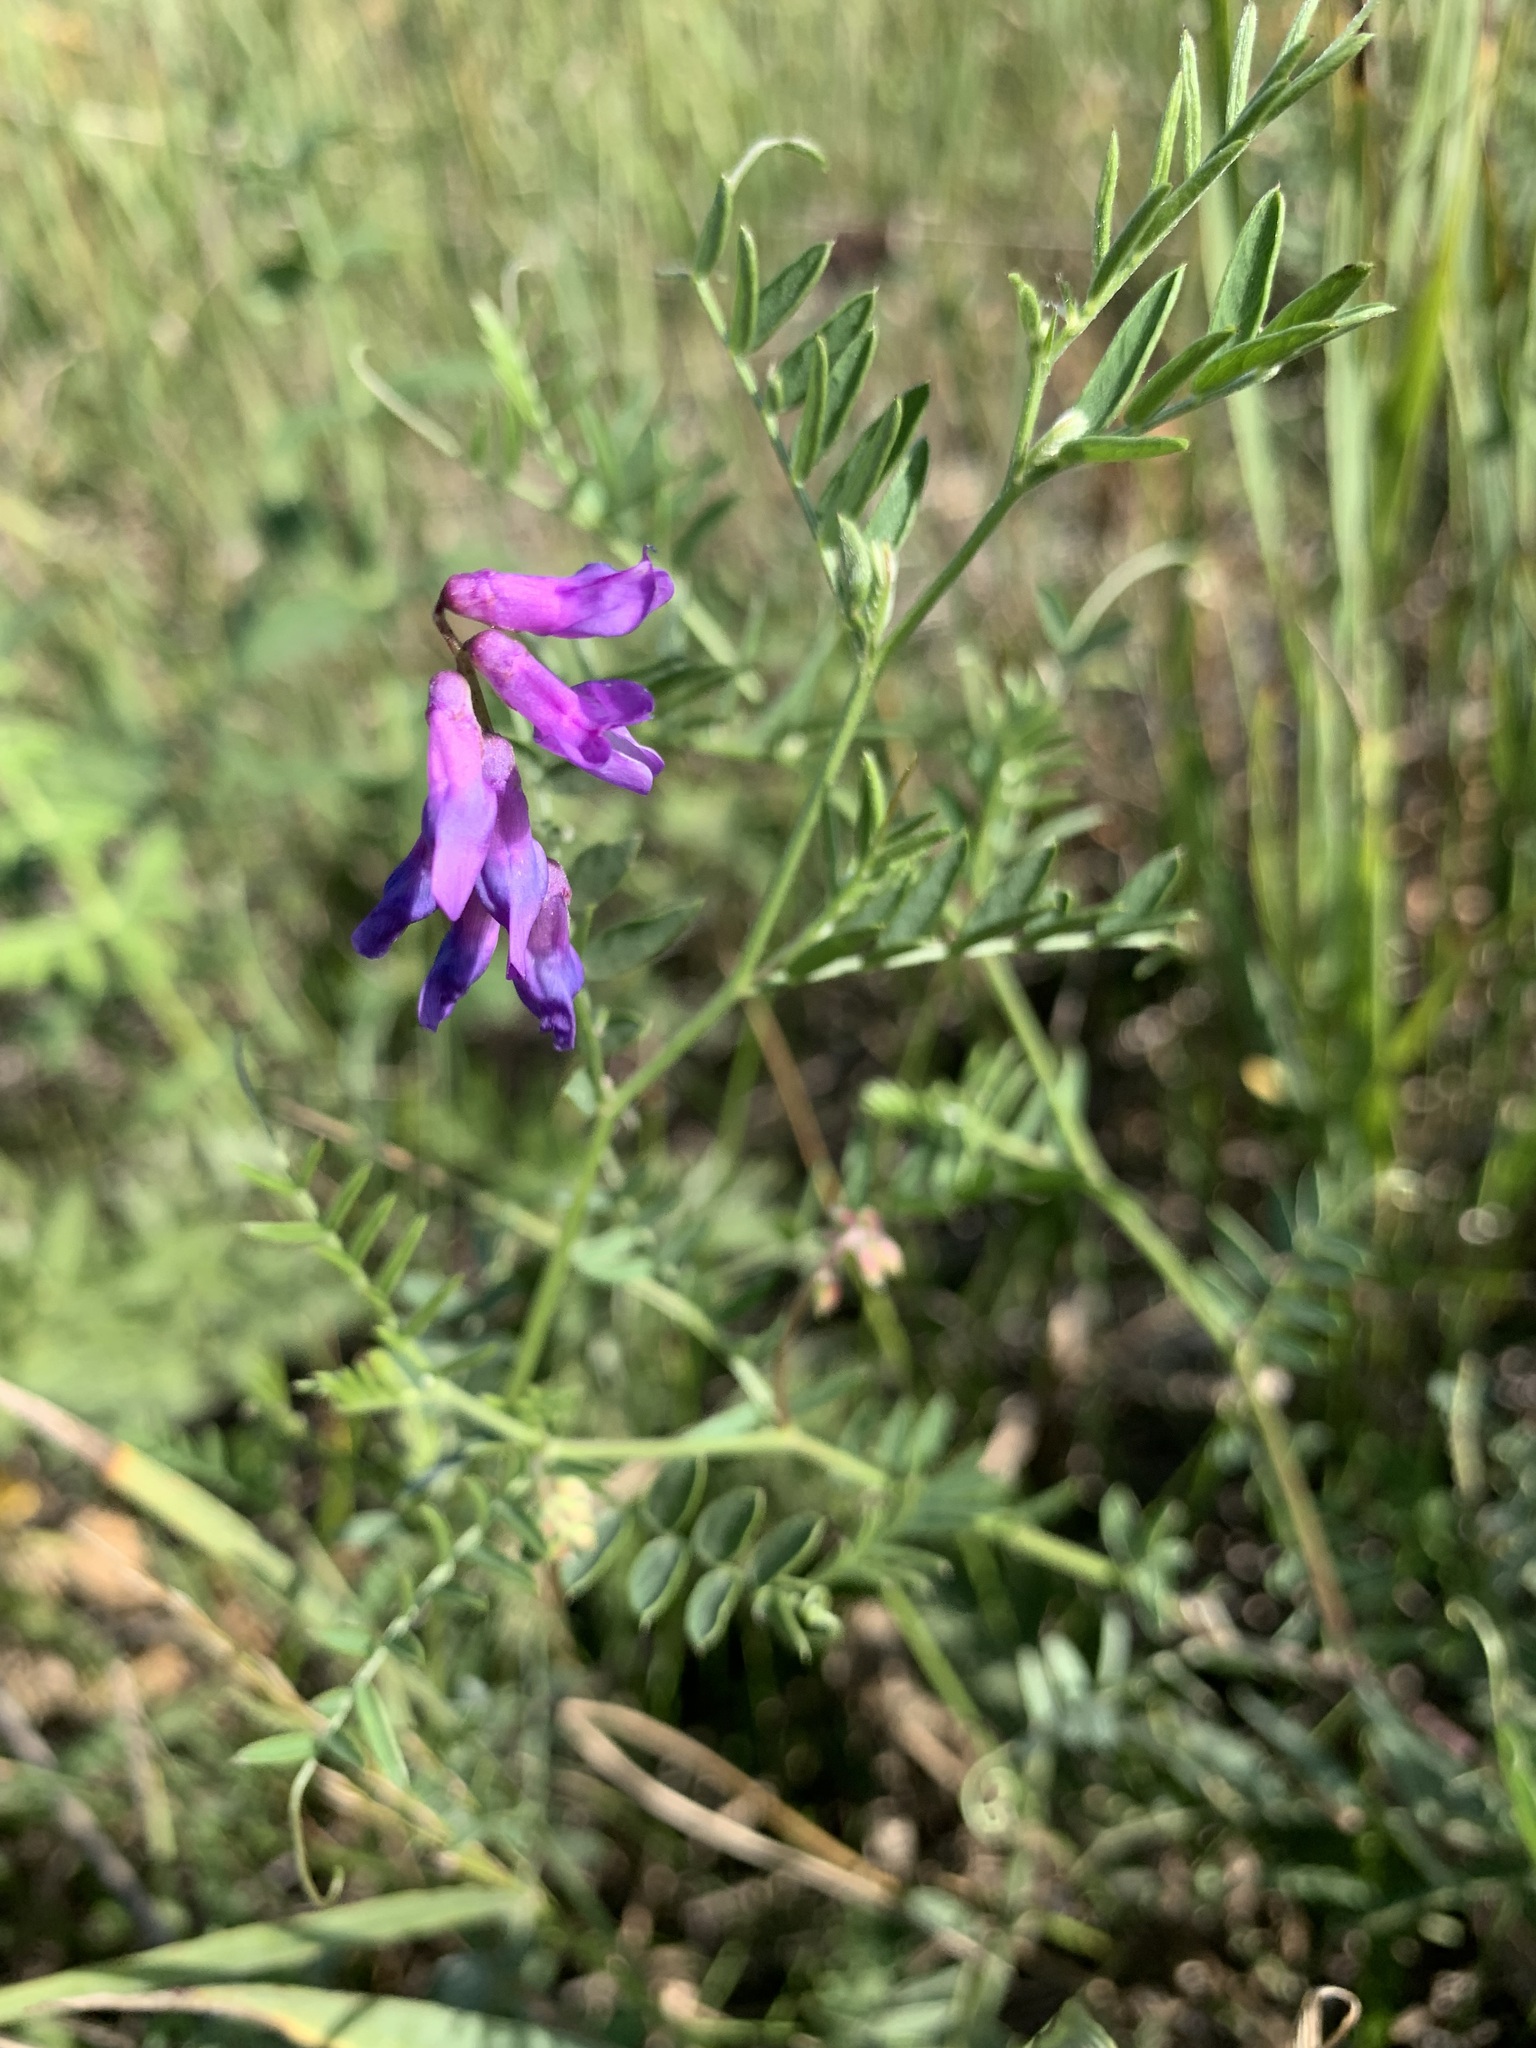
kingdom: Plantae
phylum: Tracheophyta
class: Magnoliopsida
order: Fabales
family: Fabaceae
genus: Vicia
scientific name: Vicia cracca
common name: Bird vetch
